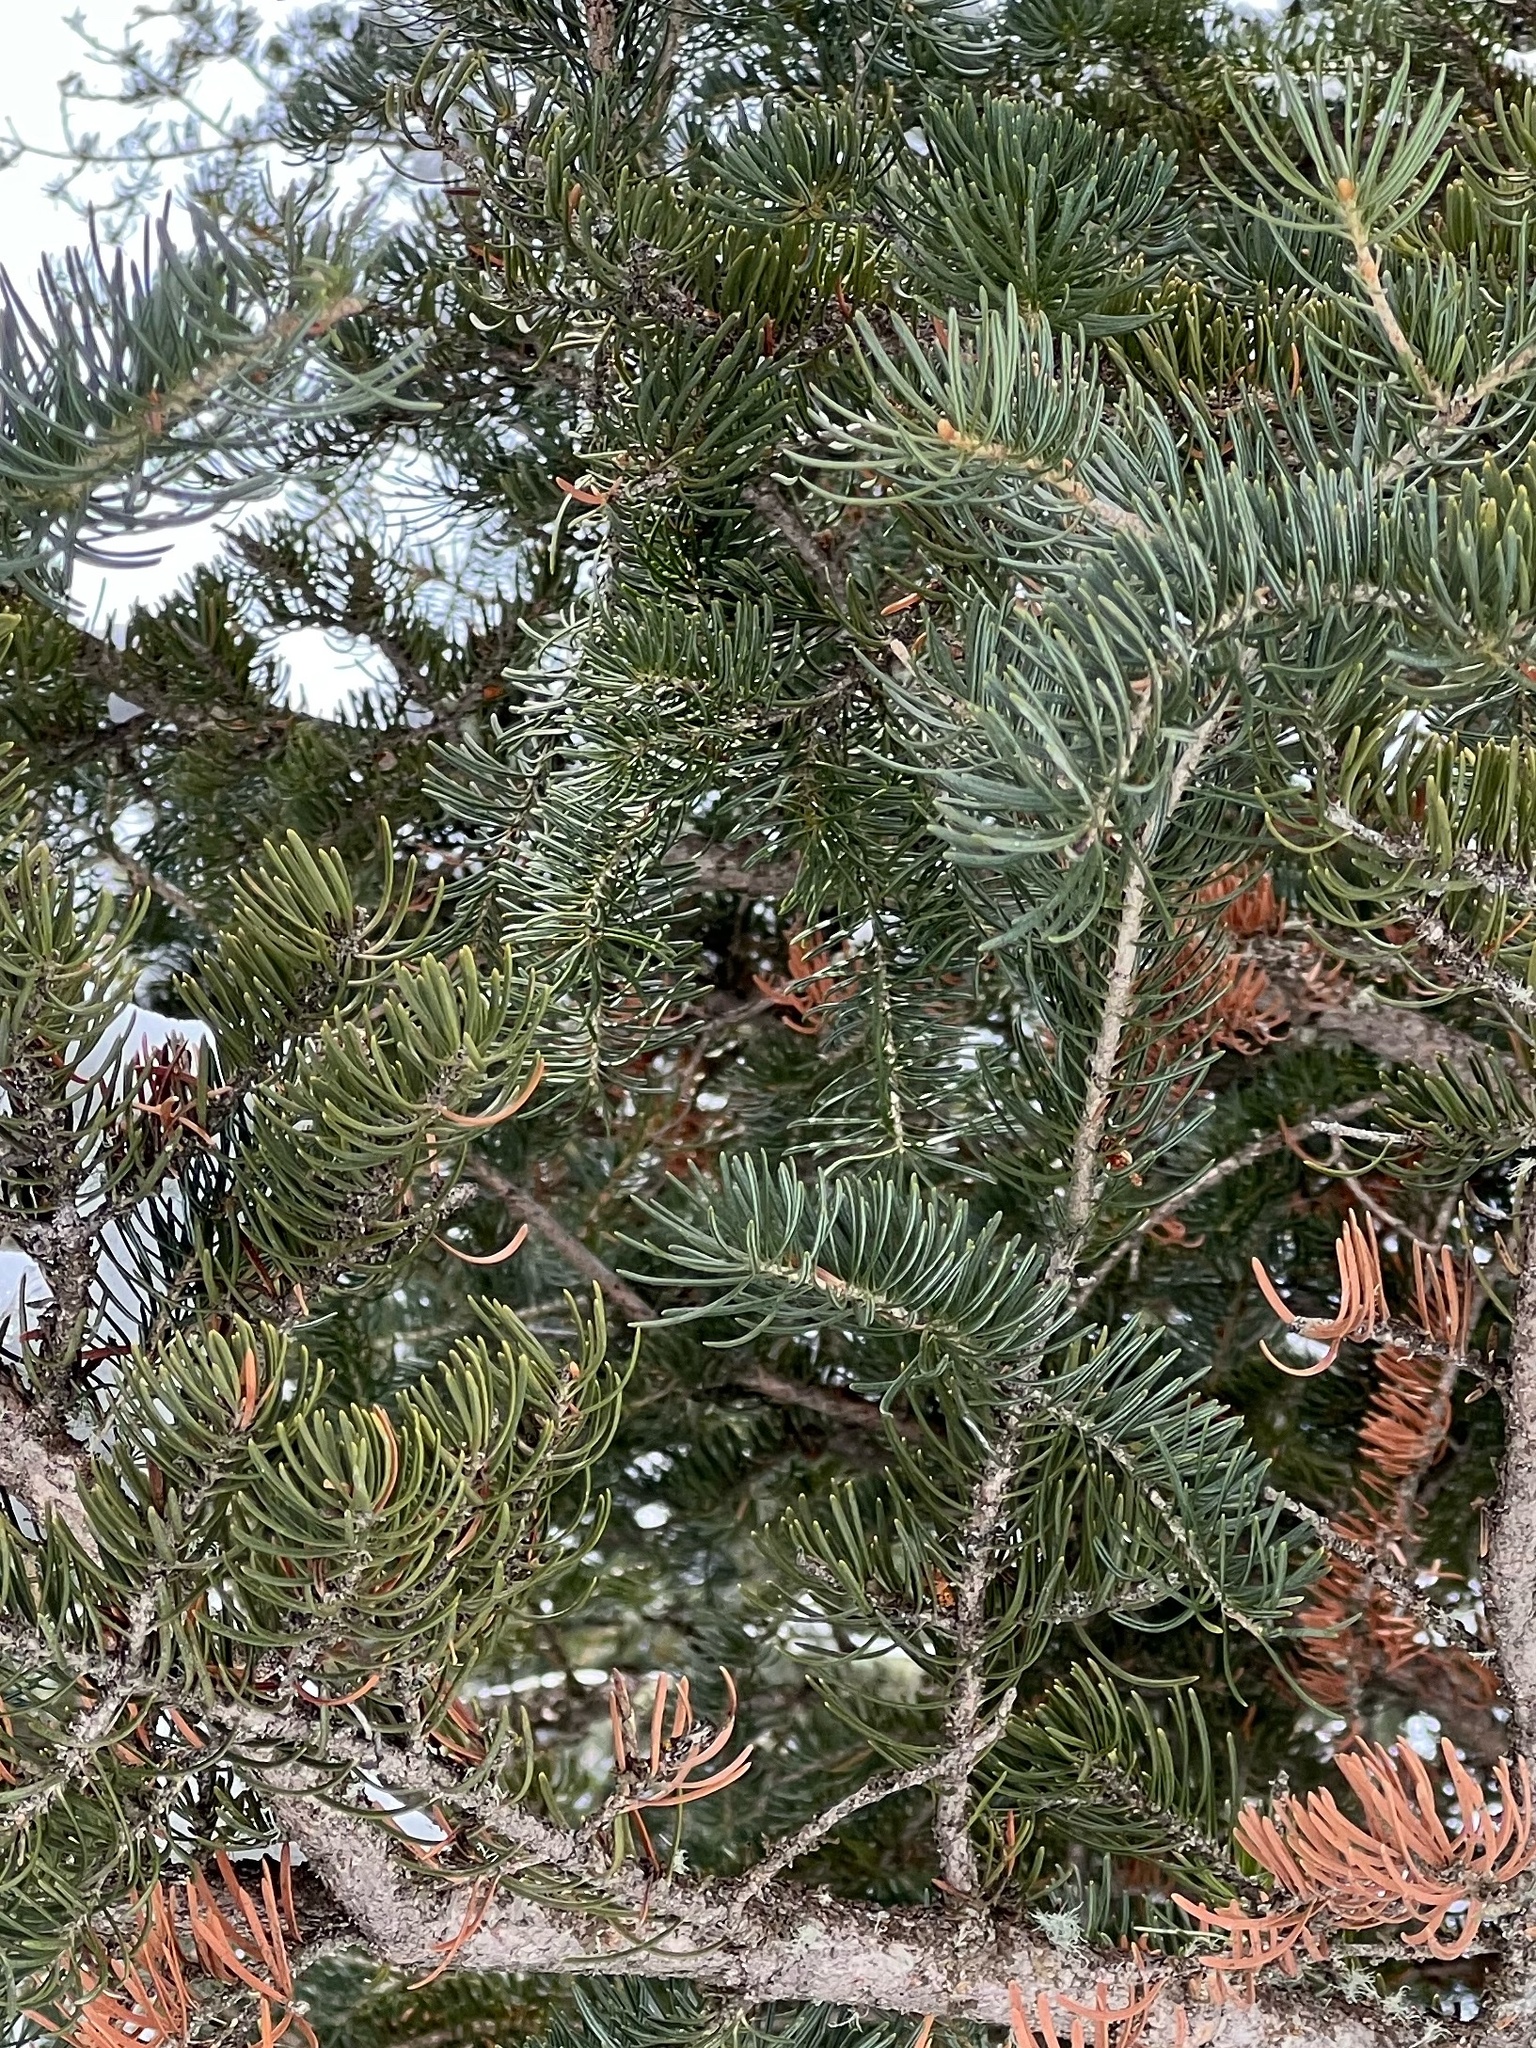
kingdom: Plantae
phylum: Tracheophyta
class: Pinopsida
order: Pinales
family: Pinaceae
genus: Abies
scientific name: Abies lasiocarpa
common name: Subalpine fir
